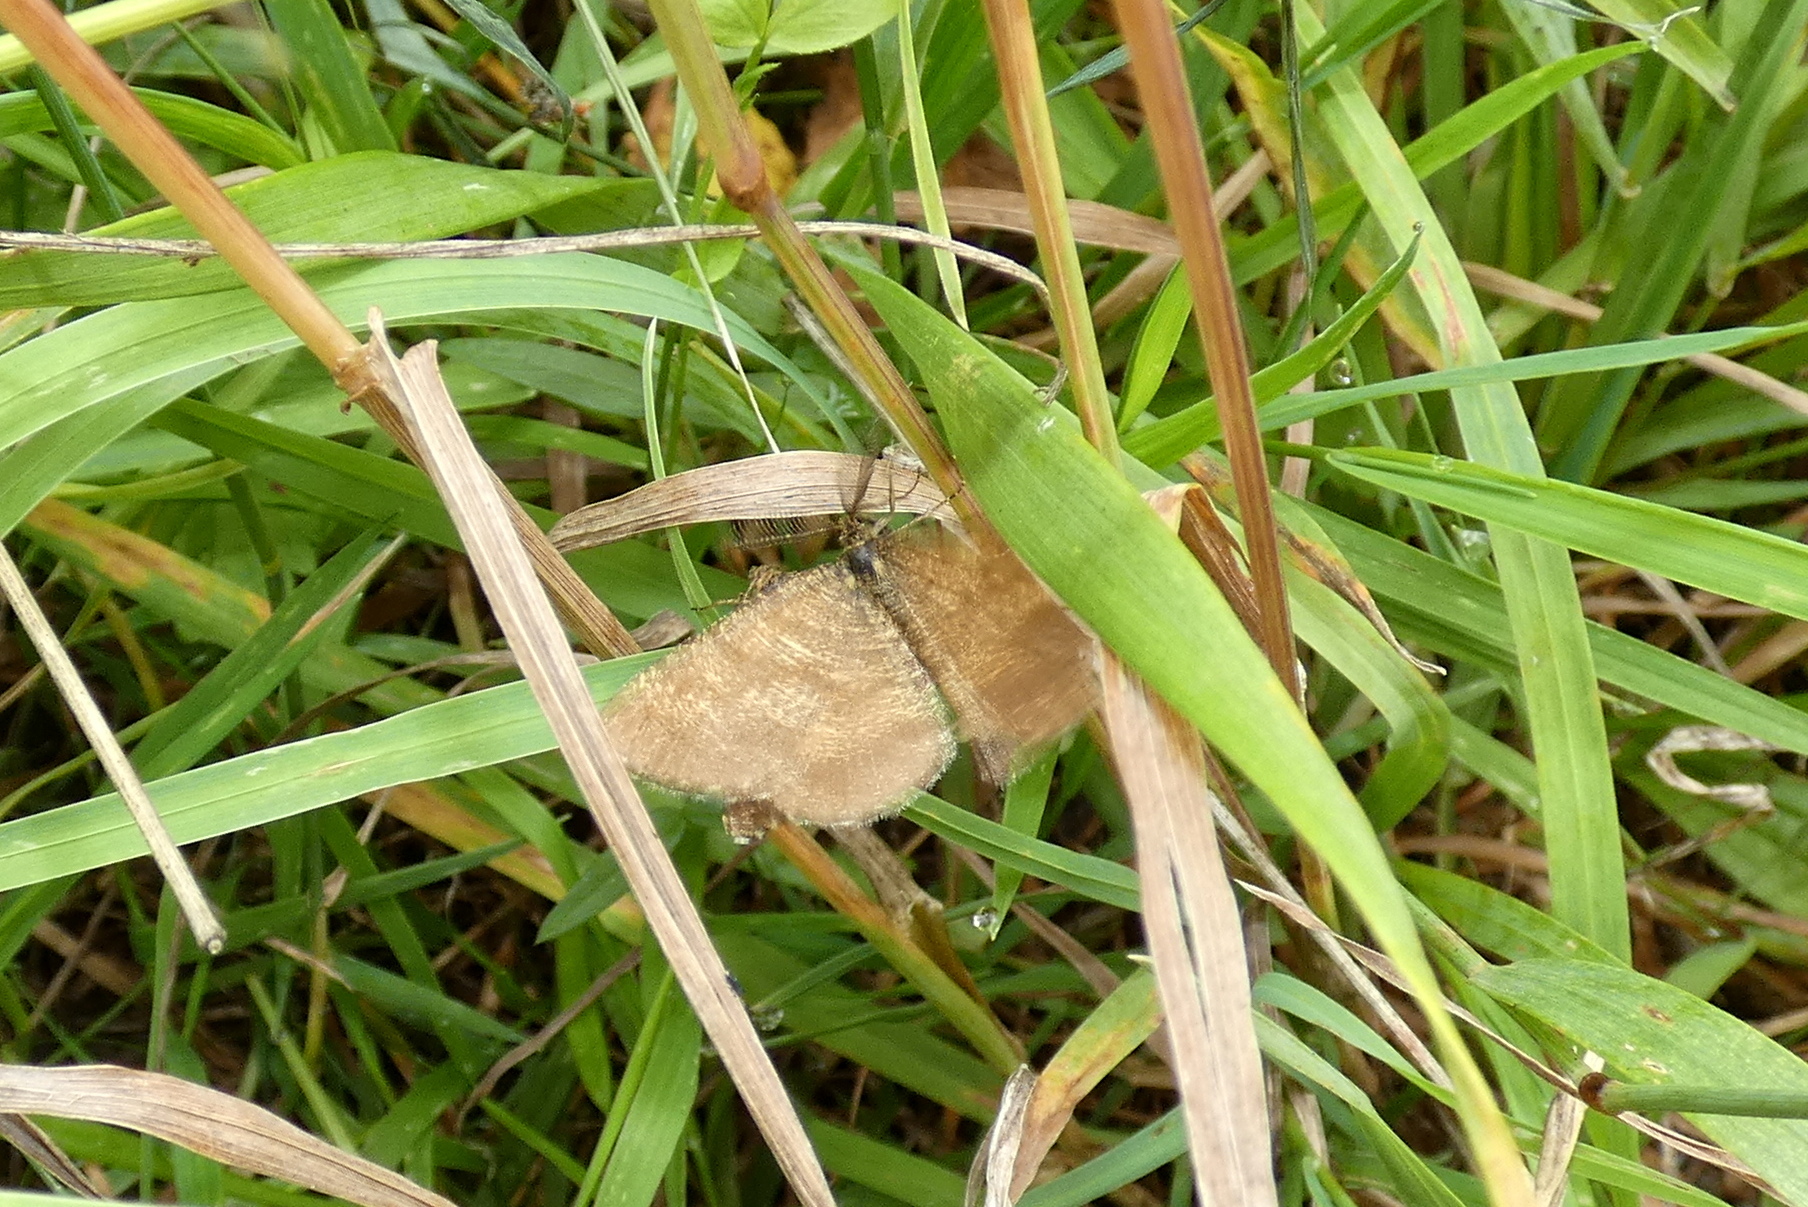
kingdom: Animalia
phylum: Arthropoda
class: Insecta
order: Lepidoptera
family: Geometridae
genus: Ematurga
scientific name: Ematurga atomaria
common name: Common heath
